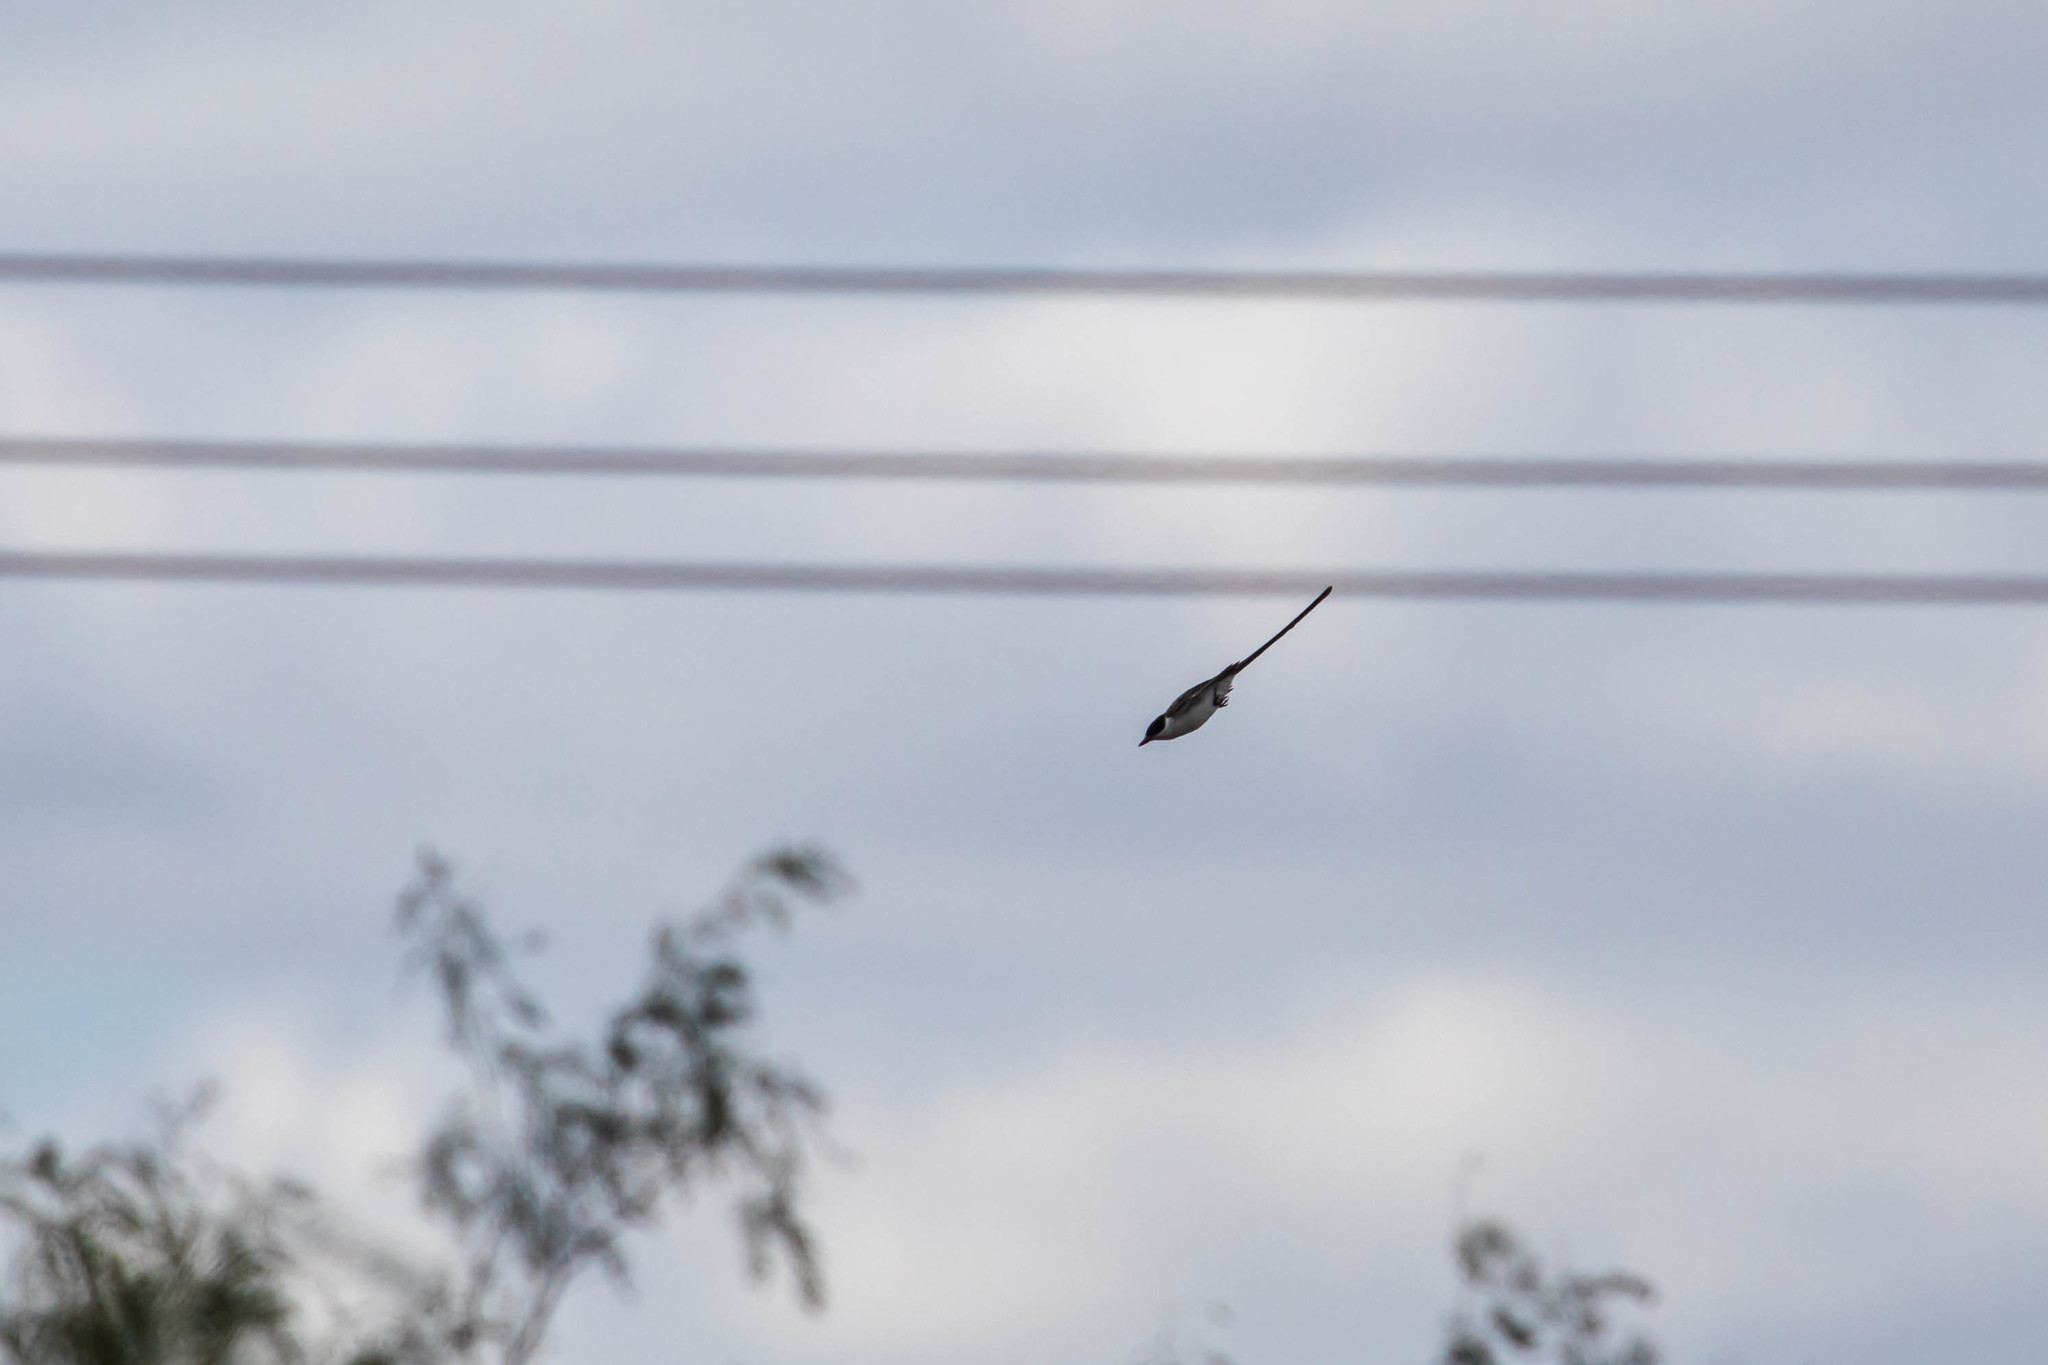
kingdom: Animalia
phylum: Chordata
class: Aves
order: Passeriformes
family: Tyrannidae
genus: Tyrannus
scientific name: Tyrannus savana
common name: Fork-tailed flycatcher
